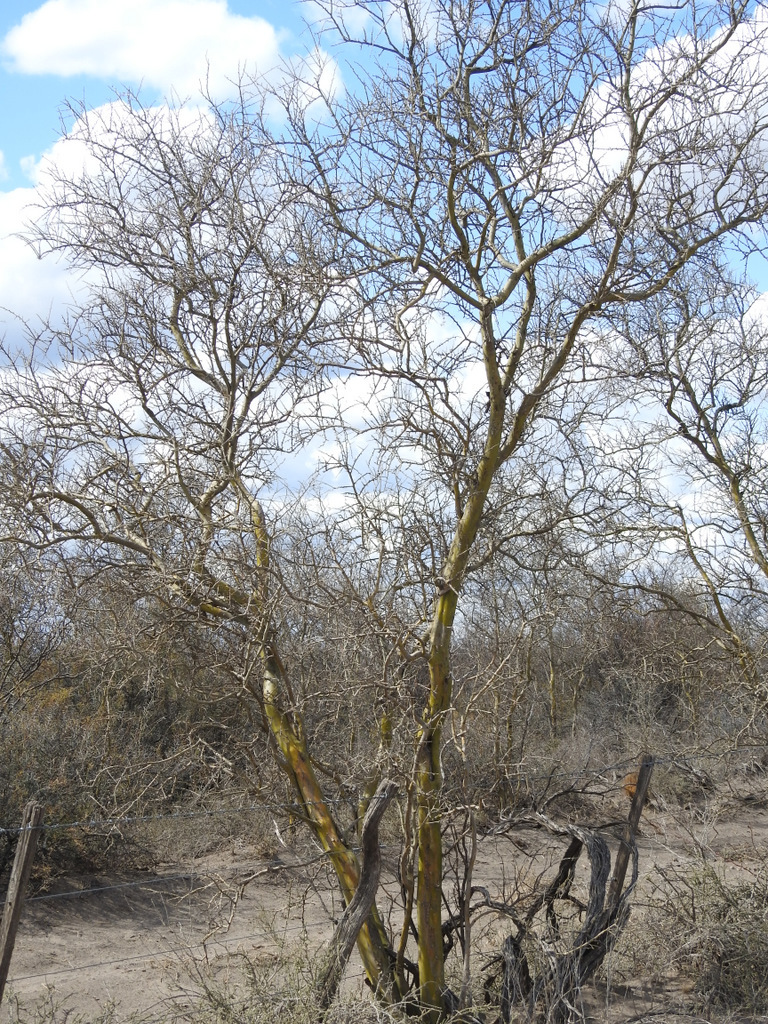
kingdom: Plantae
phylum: Tracheophyta
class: Magnoliopsida
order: Fabales
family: Fabaceae
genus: Geoffroea
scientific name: Geoffroea decorticans
